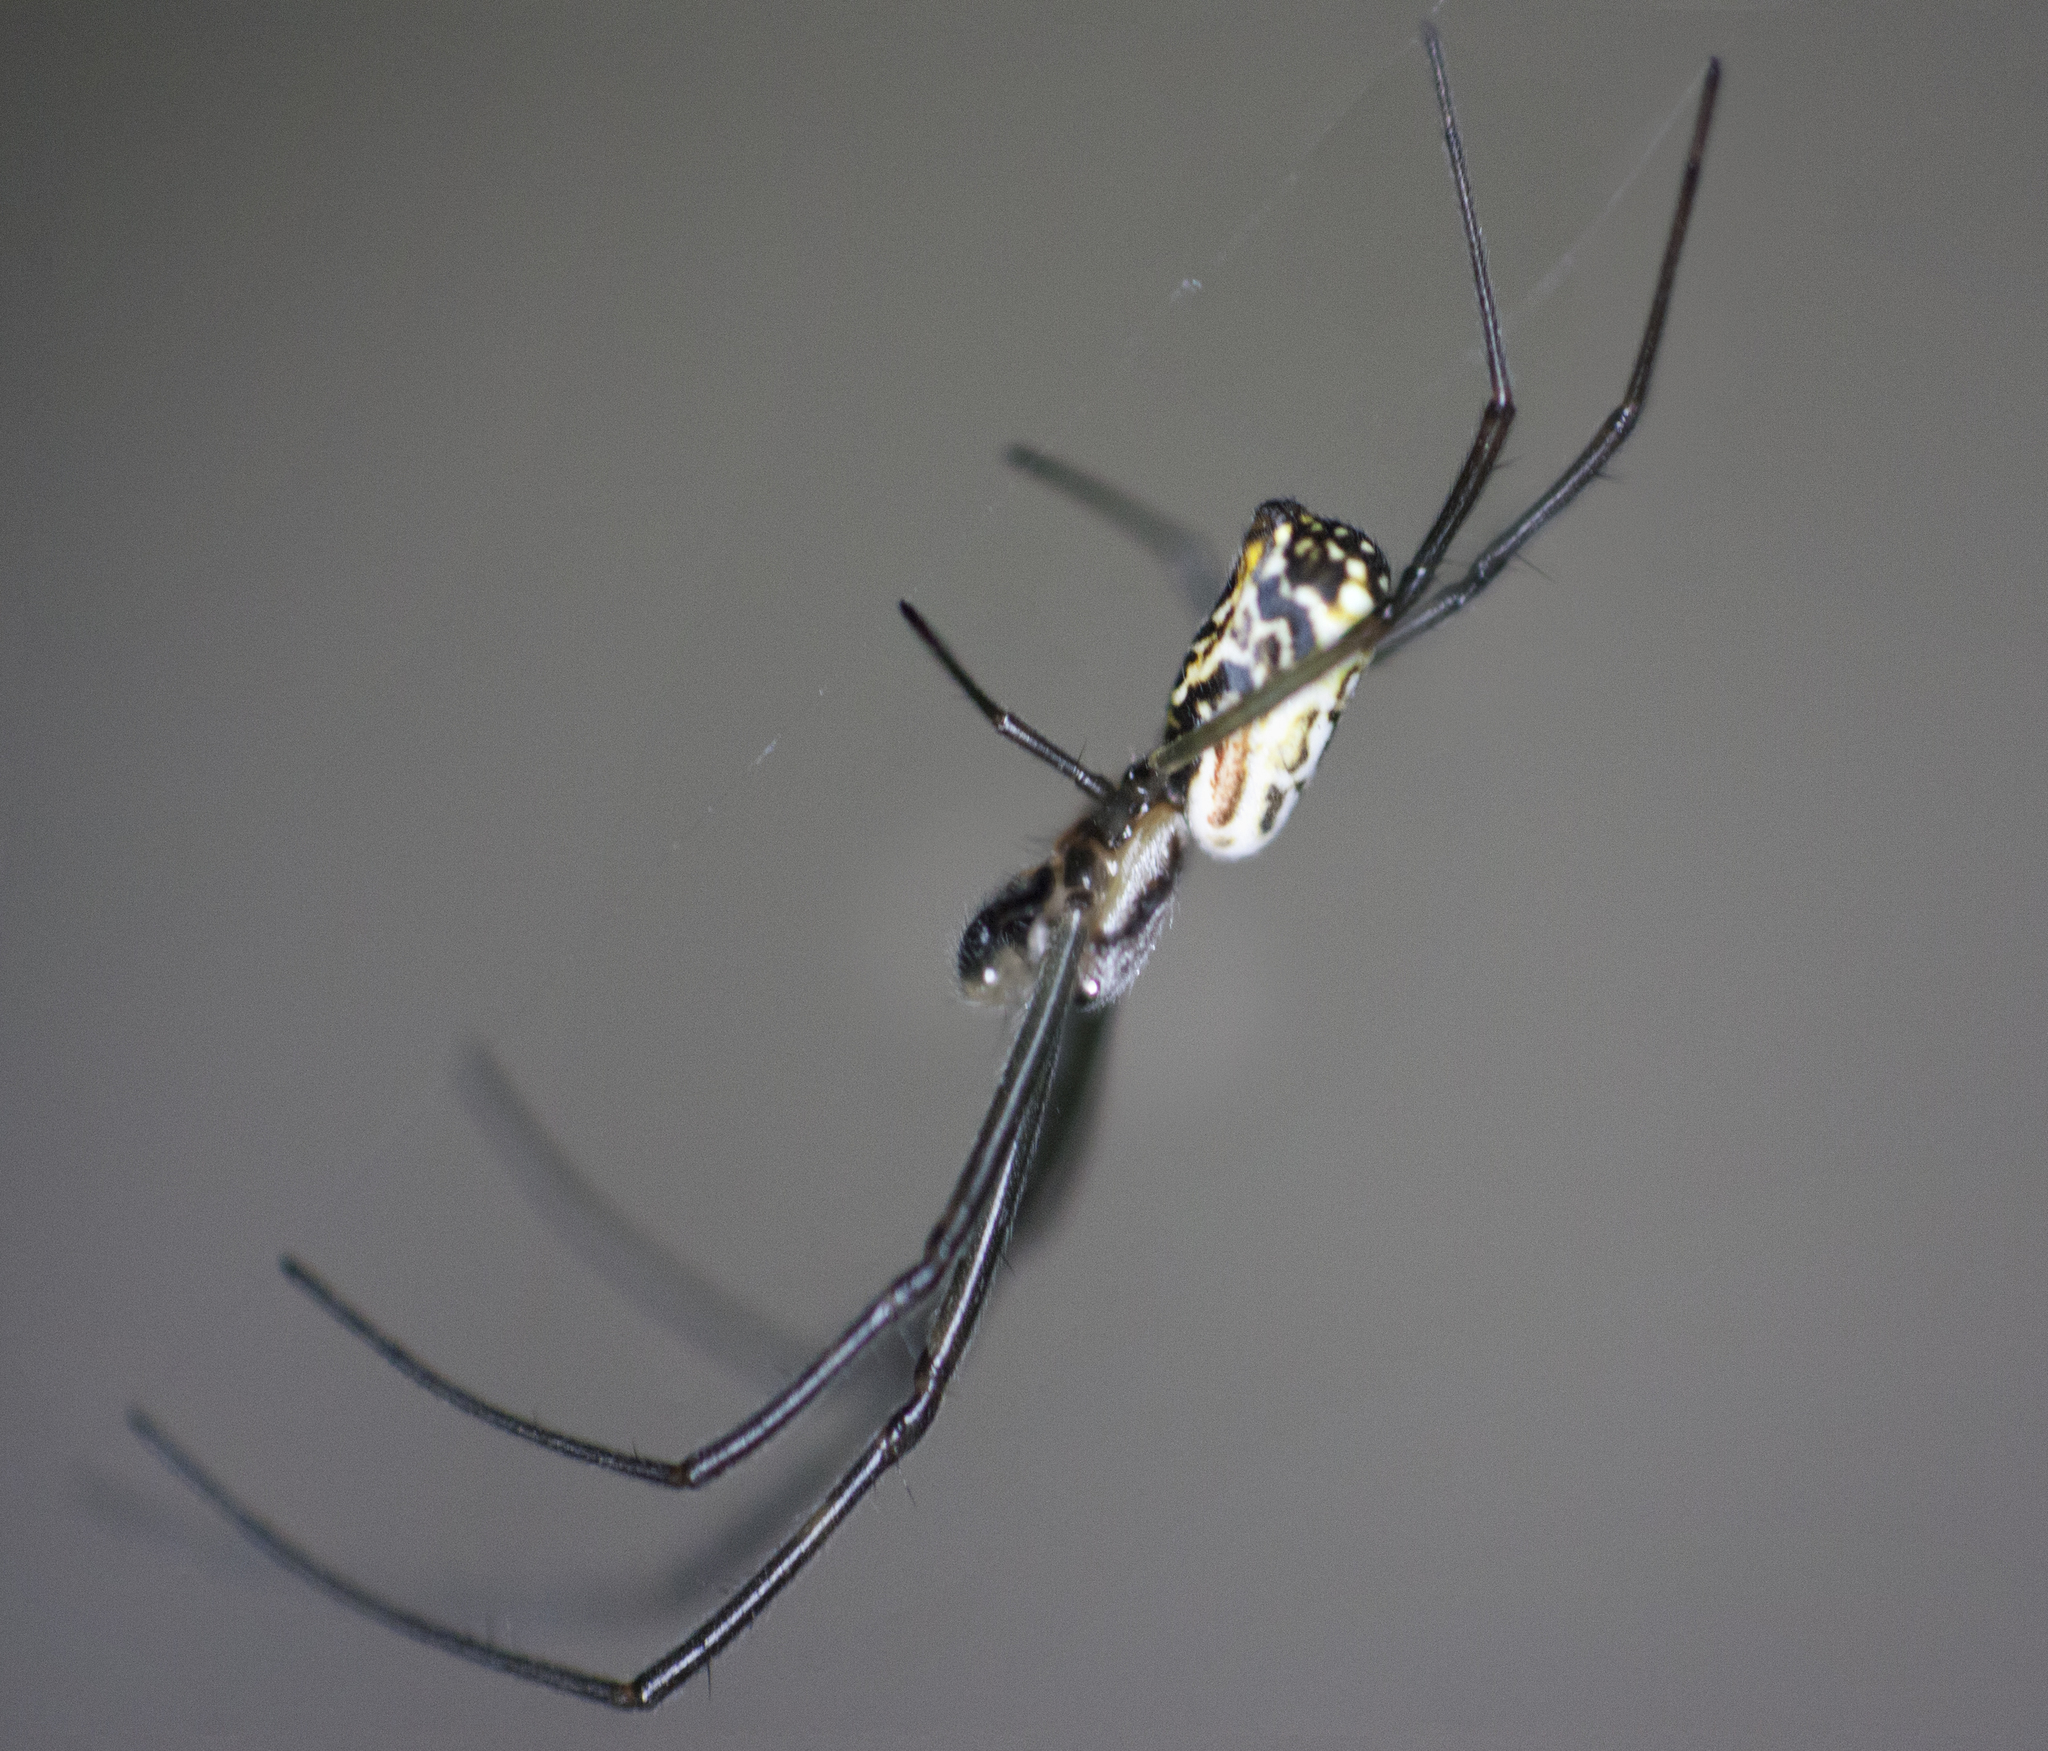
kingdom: Animalia
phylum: Arthropoda
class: Arachnida
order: Araneae
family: Araneidae
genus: Trichonephila
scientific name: Trichonephila plumipes
